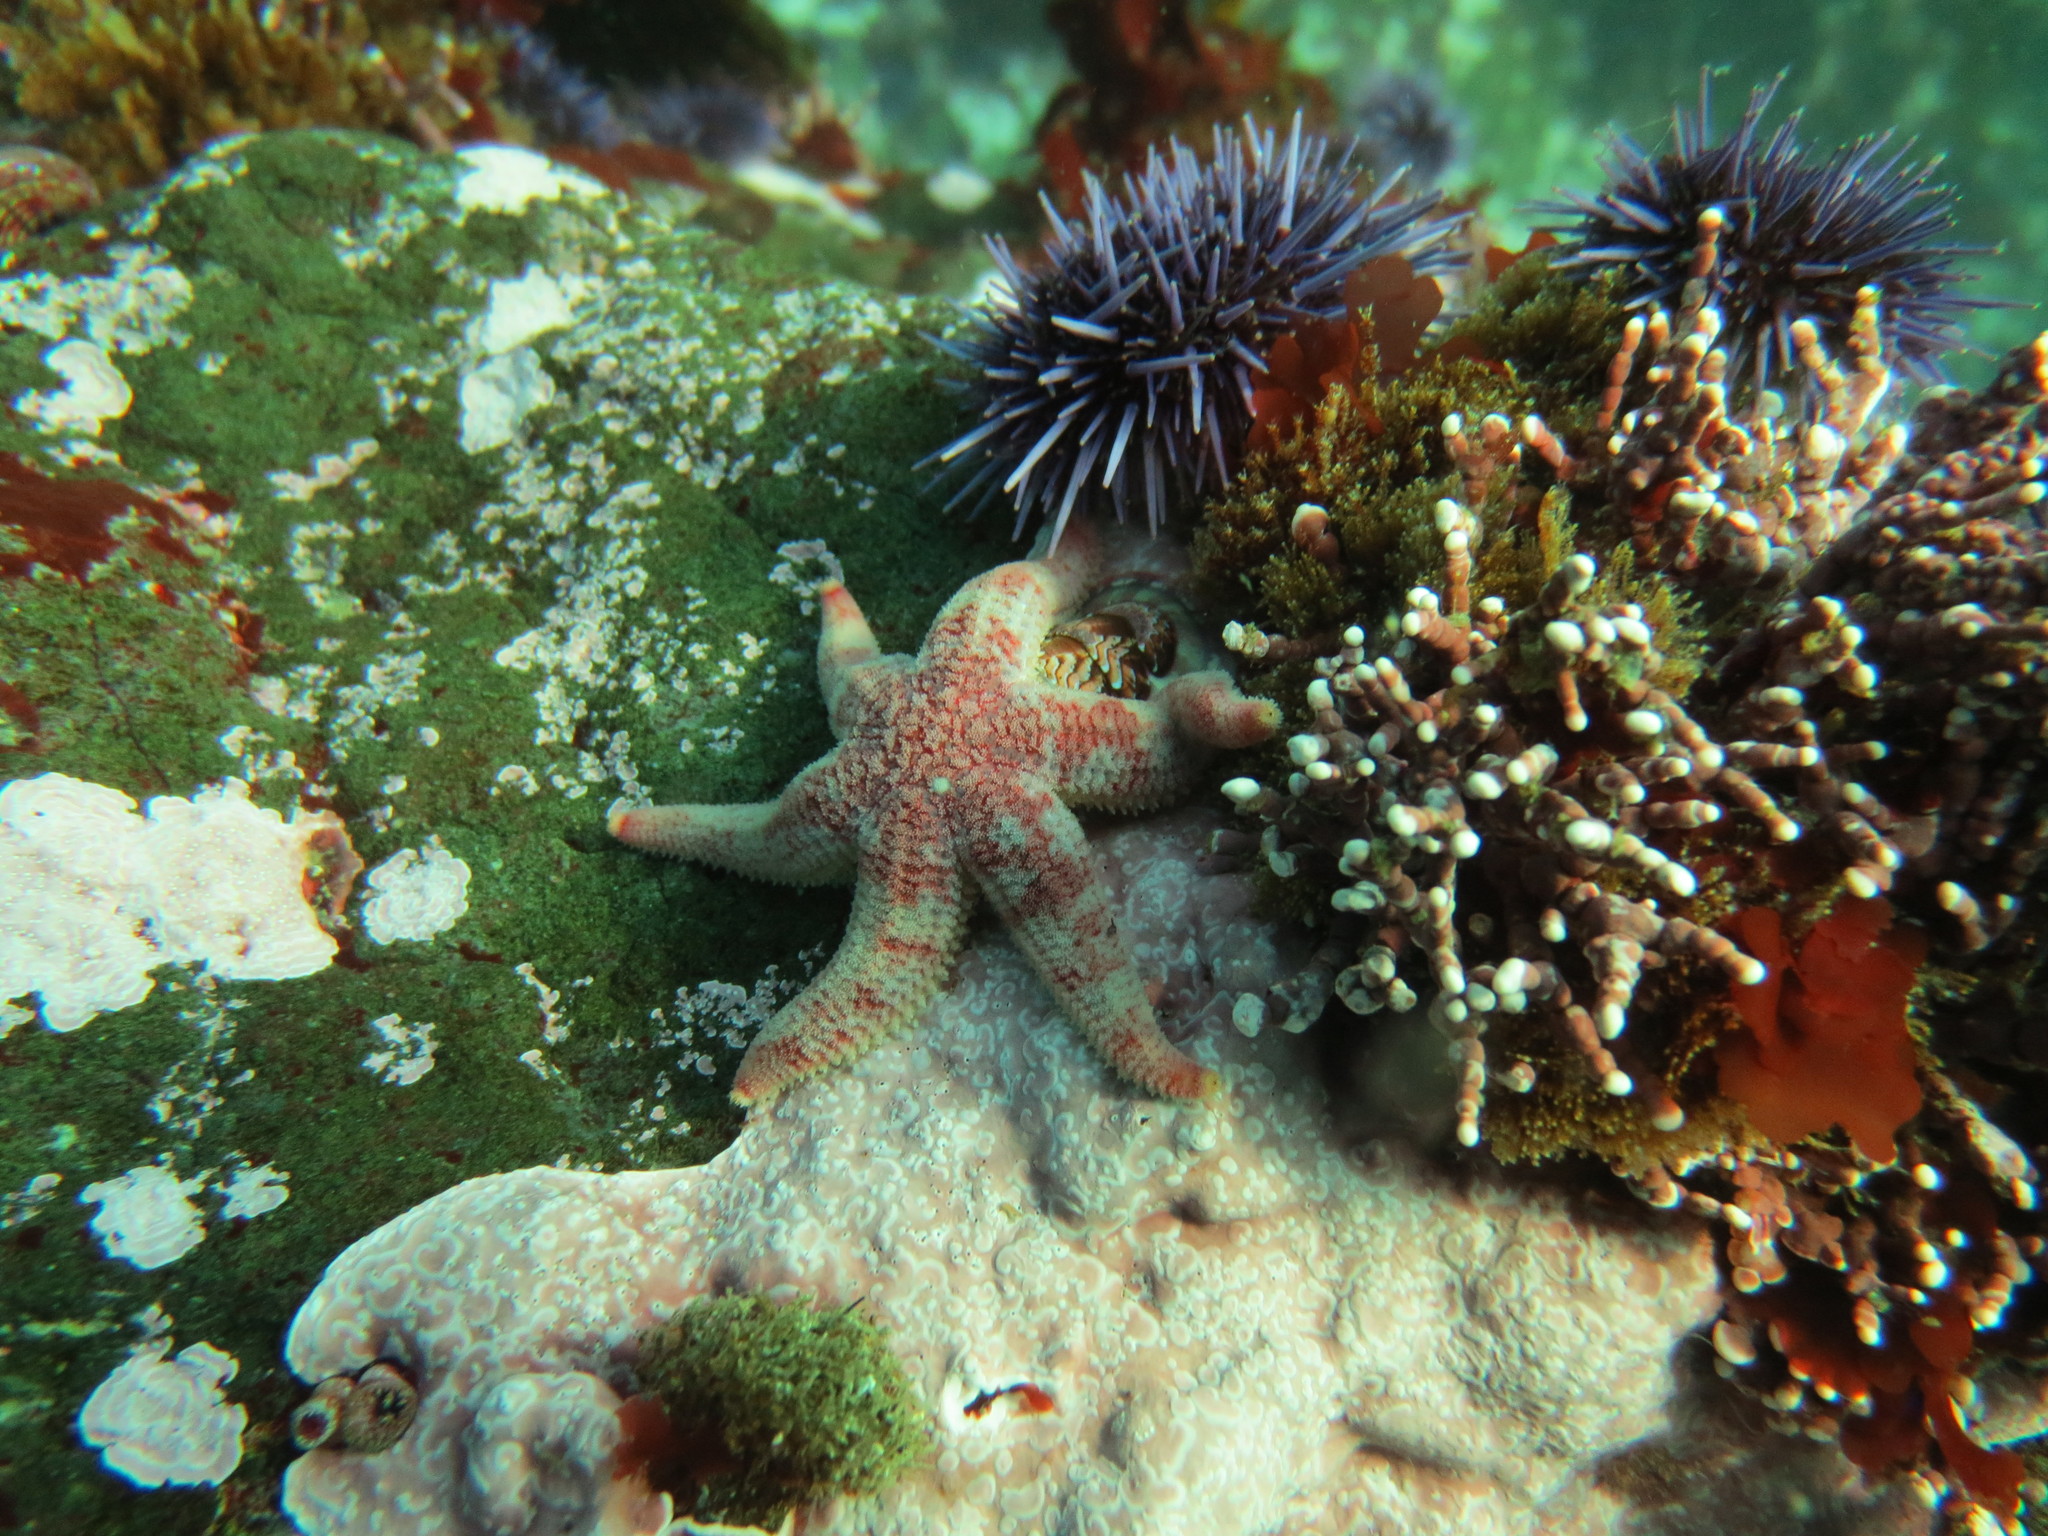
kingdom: Animalia
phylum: Mollusca
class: Polyplacophora
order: Chitonida
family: Tonicellidae
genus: Tonicella
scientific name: Tonicella lokii
